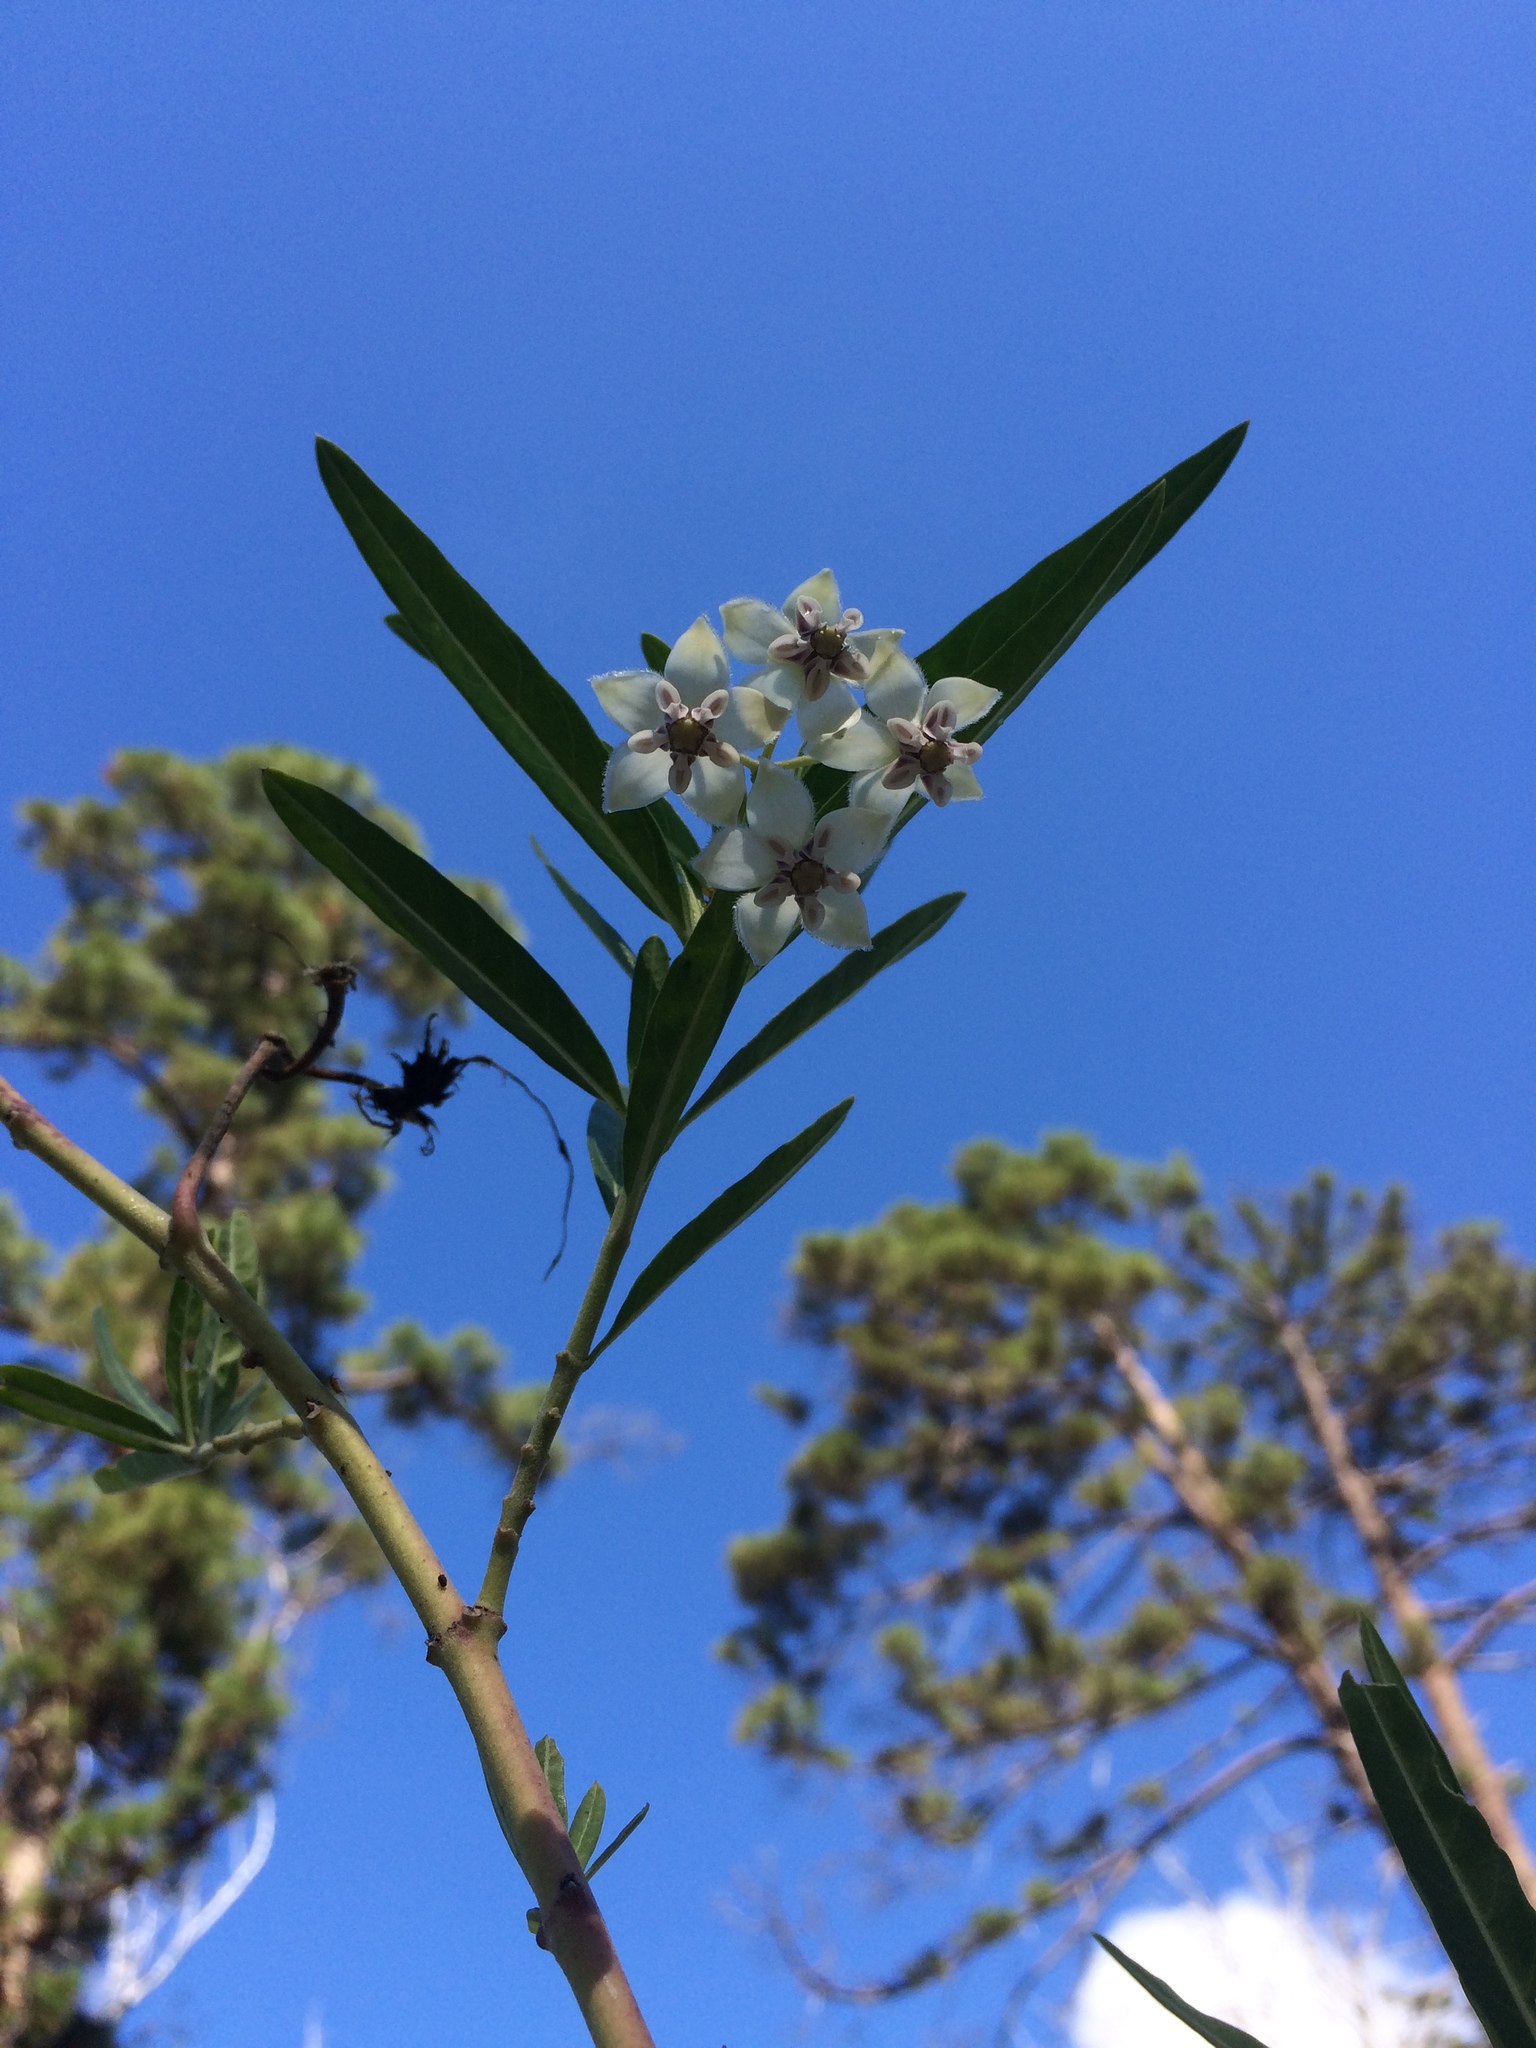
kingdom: Plantae
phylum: Tracheophyta
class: Magnoliopsida
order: Gentianales
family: Apocynaceae
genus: Gomphocarpus
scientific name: Gomphocarpus physocarpus
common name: Balloon cotton bush
